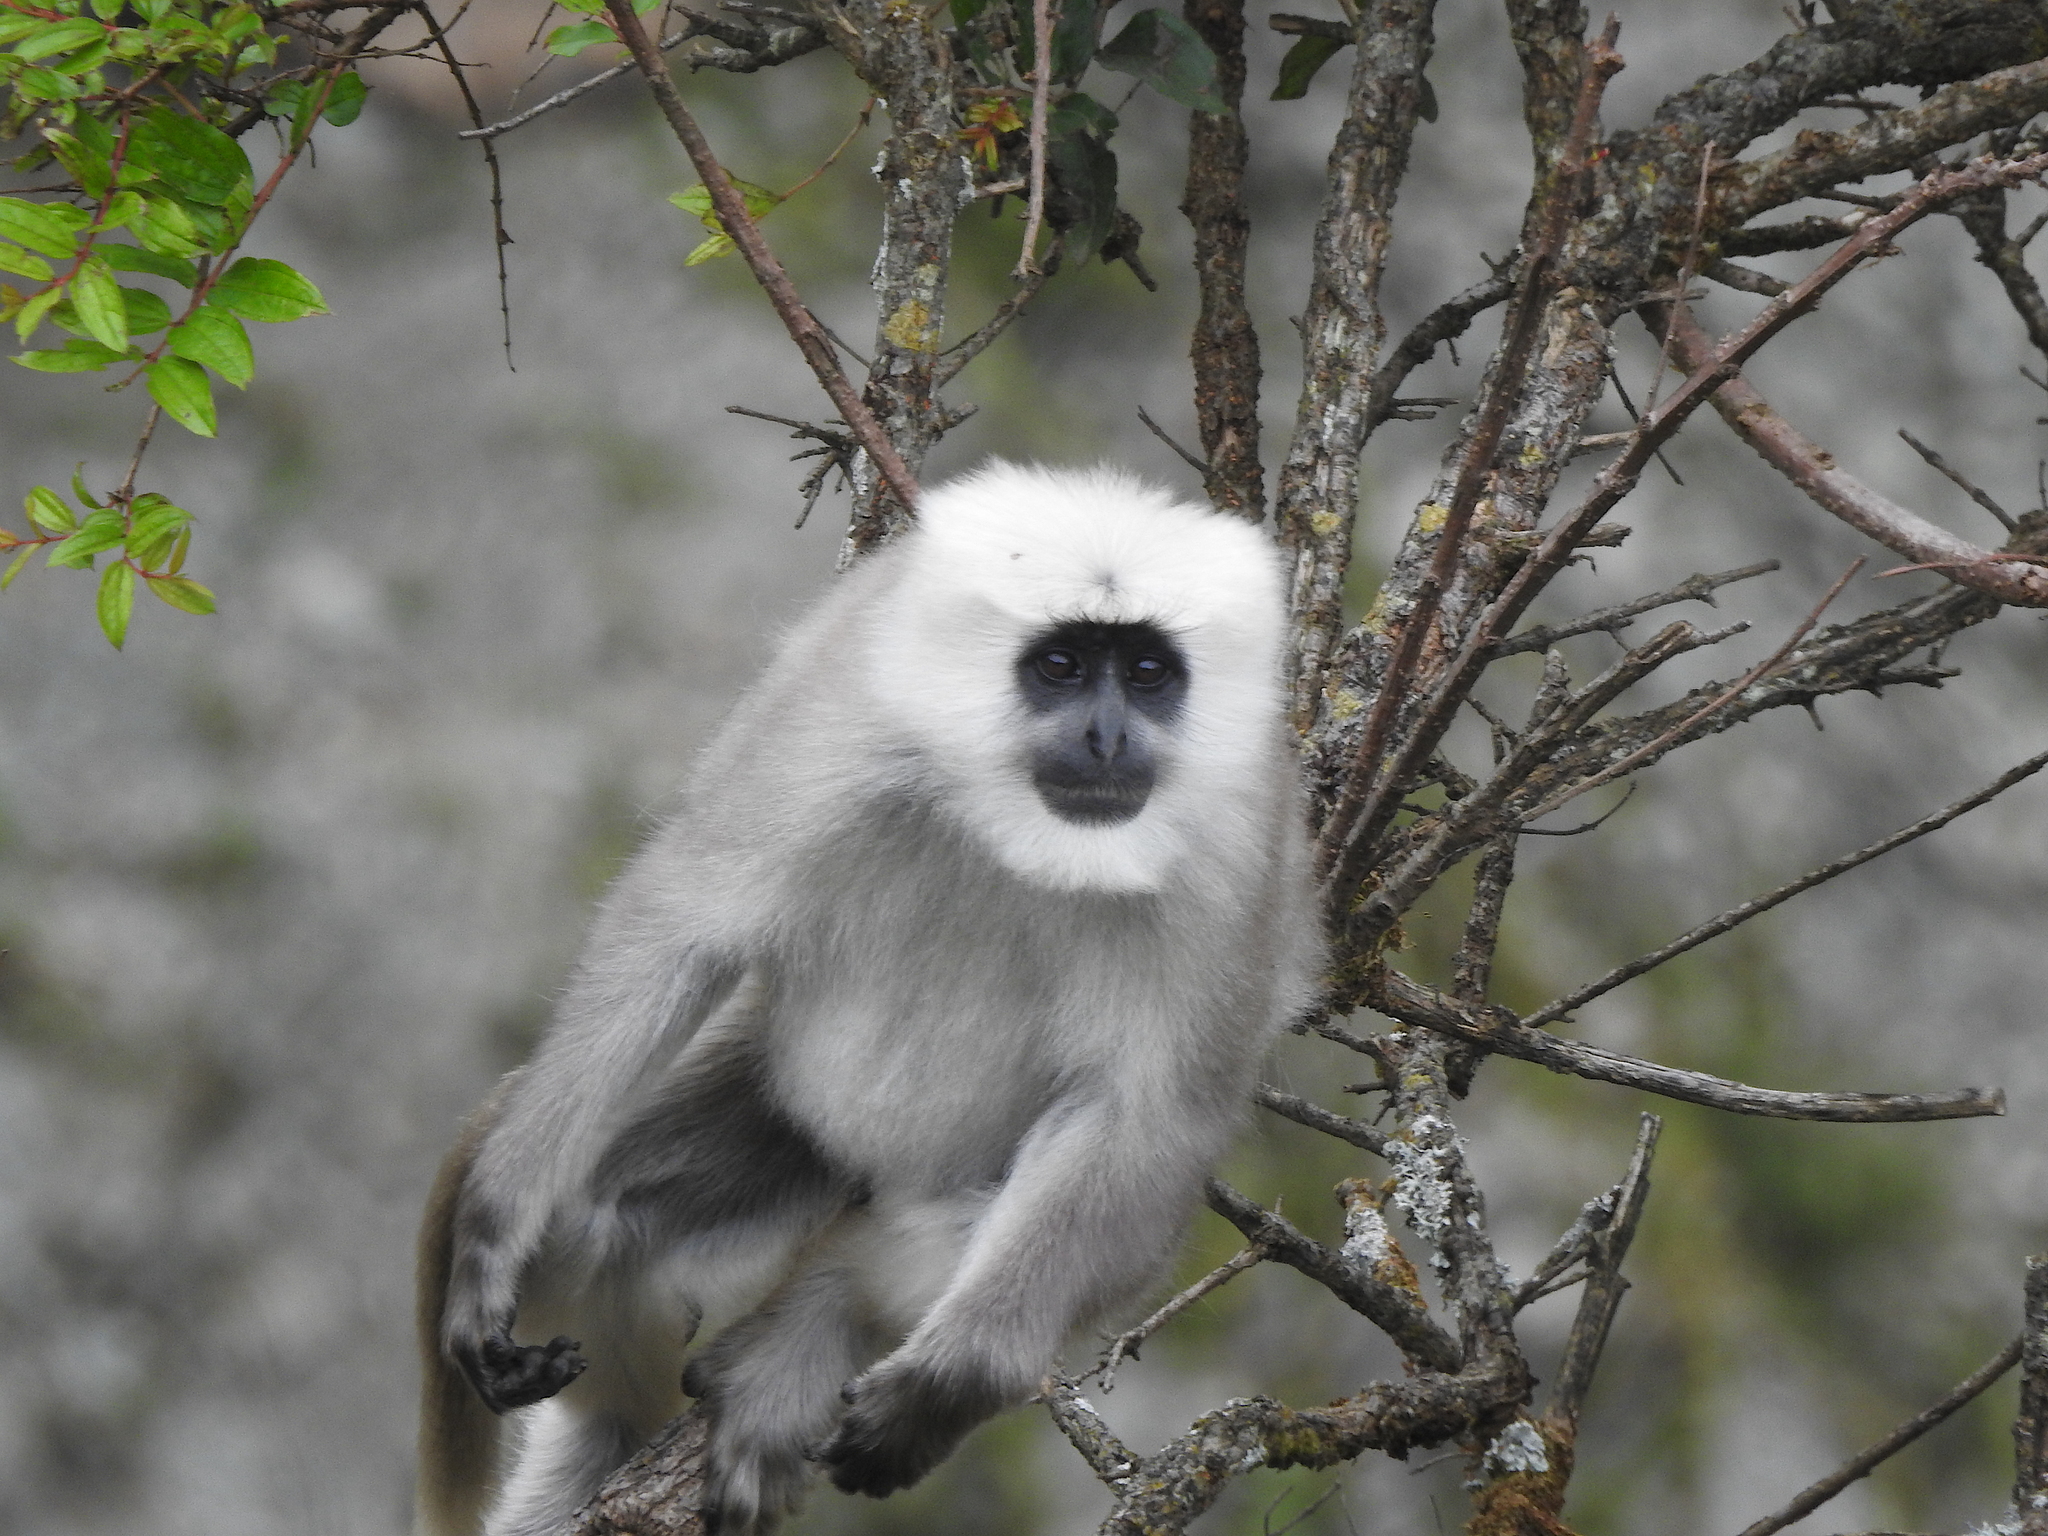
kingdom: Animalia
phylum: Chordata
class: Mammalia
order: Primates
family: Cercopithecidae
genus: Semnopithecus
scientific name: Semnopithecus schistaceus
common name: Nepal gray langur
